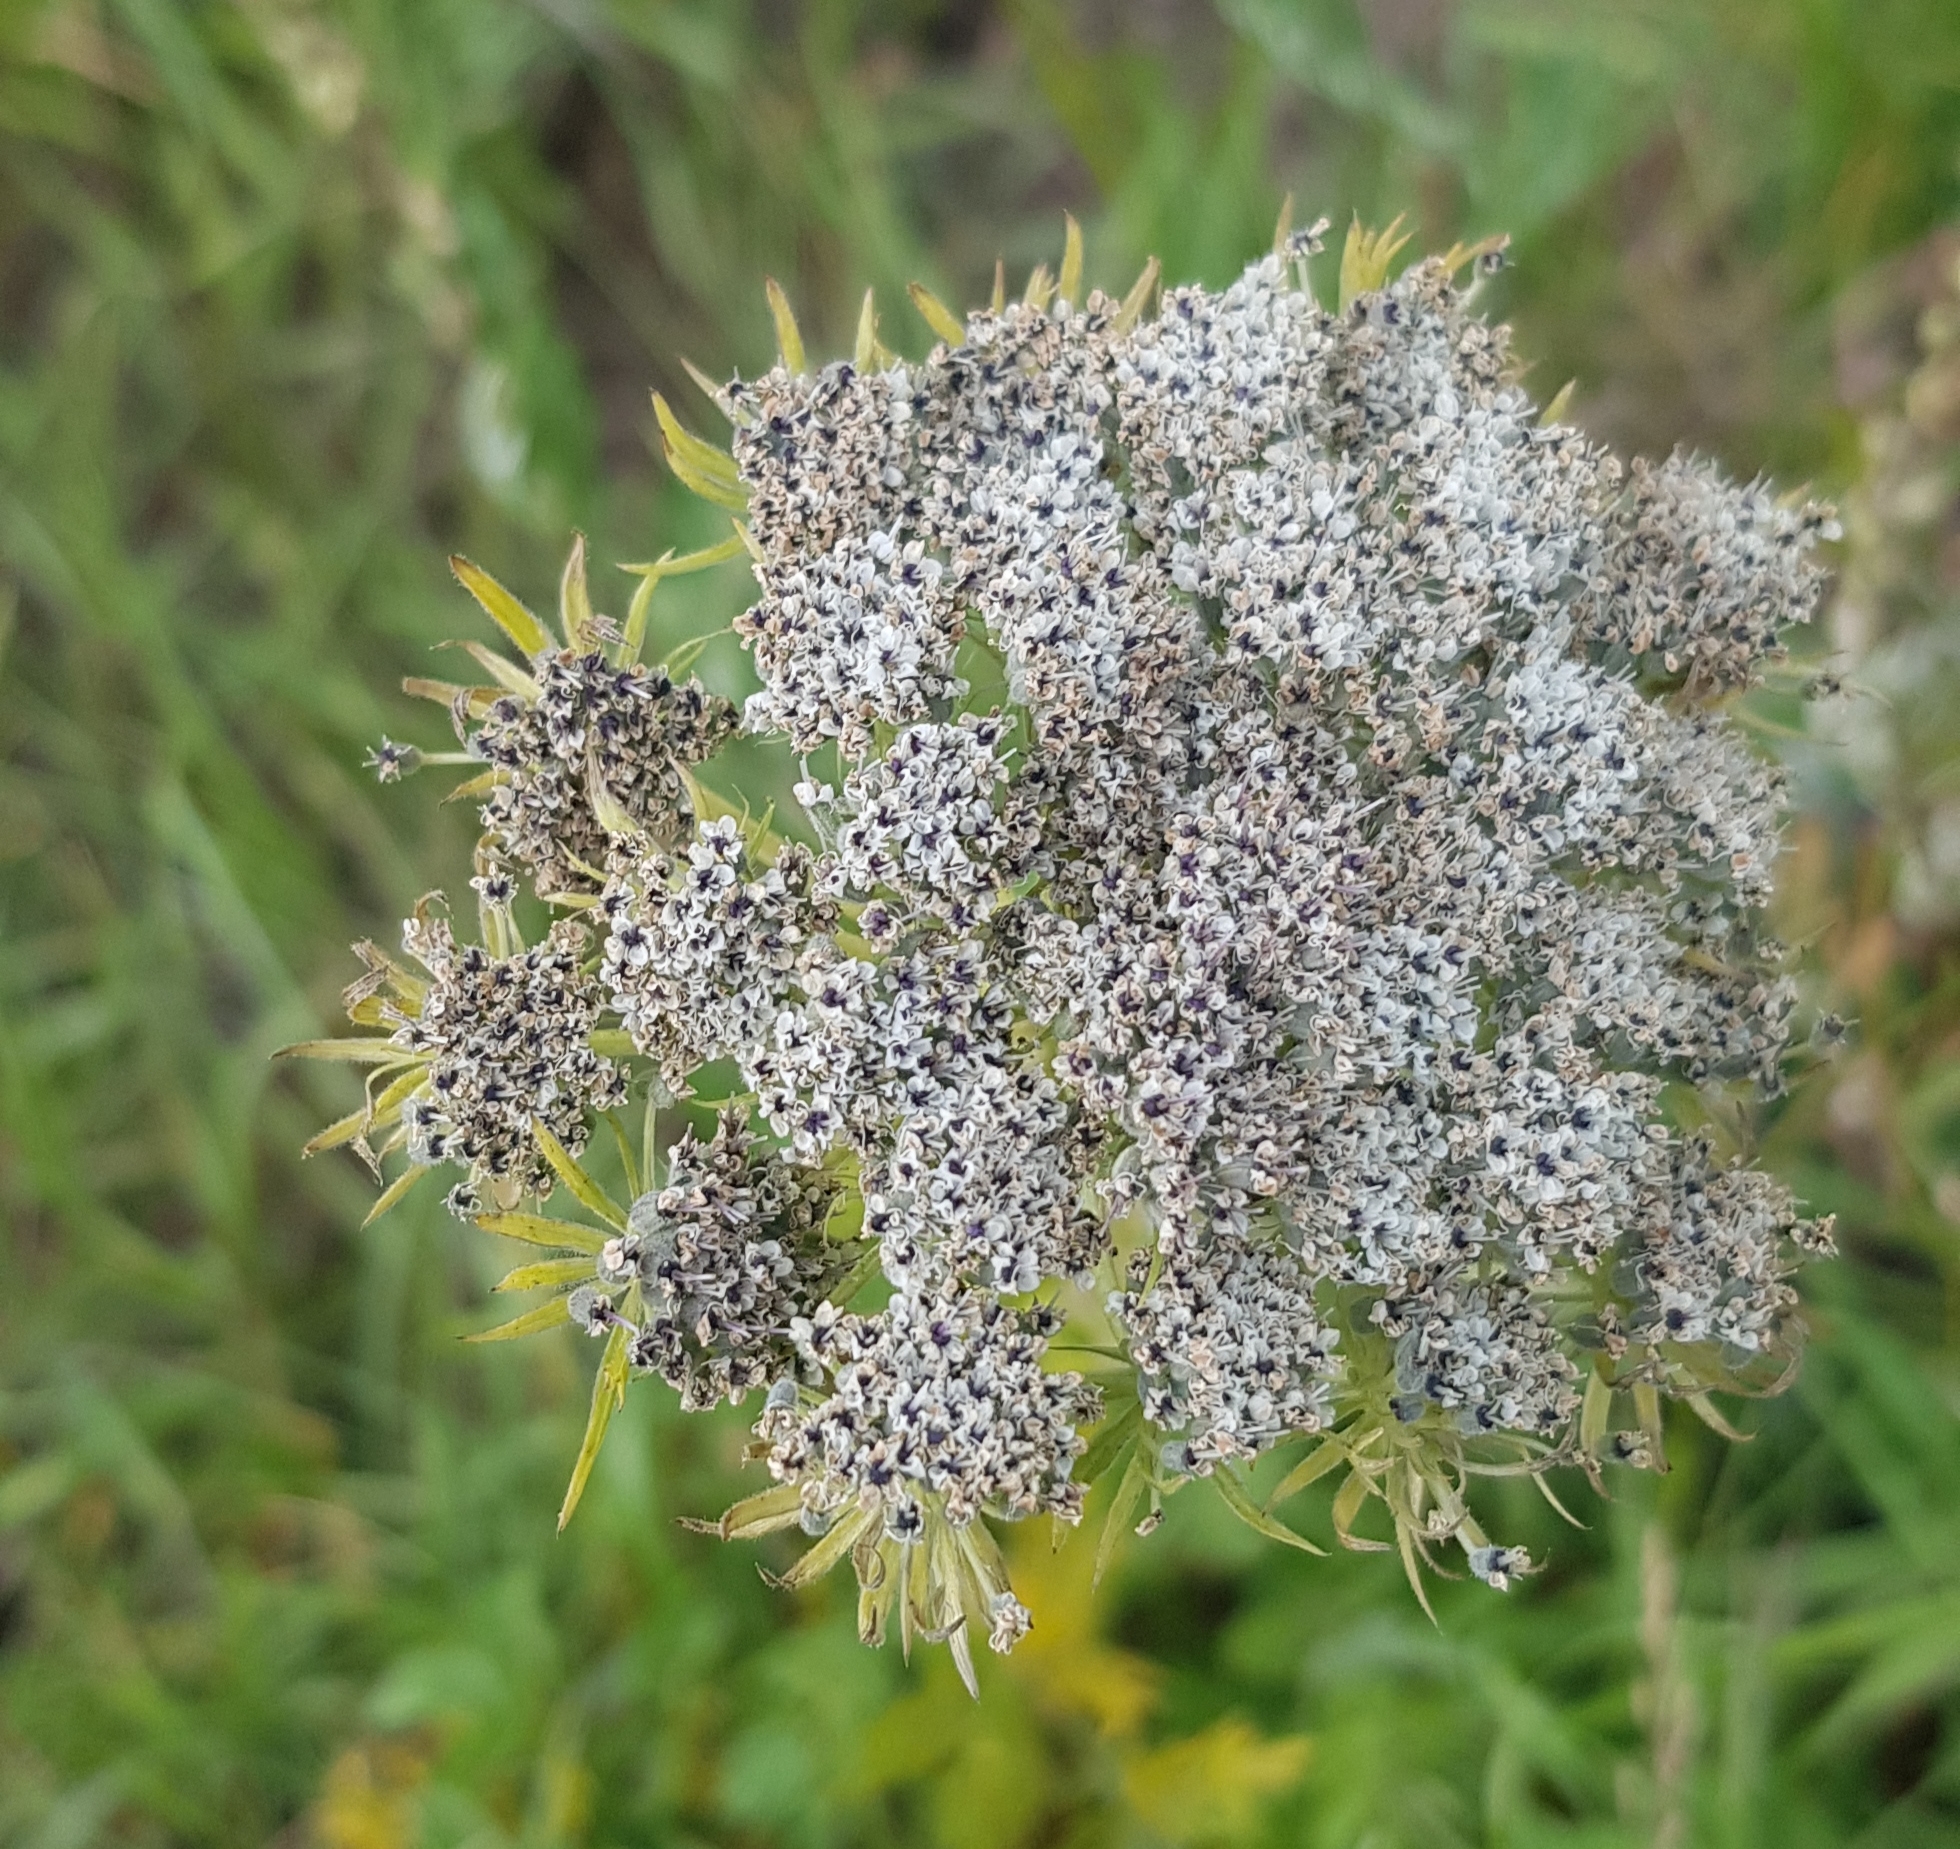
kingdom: Plantae
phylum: Tracheophyta
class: Magnoliopsida
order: Apiales
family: Apiaceae
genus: Seseli
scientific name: Seseli seseloides
